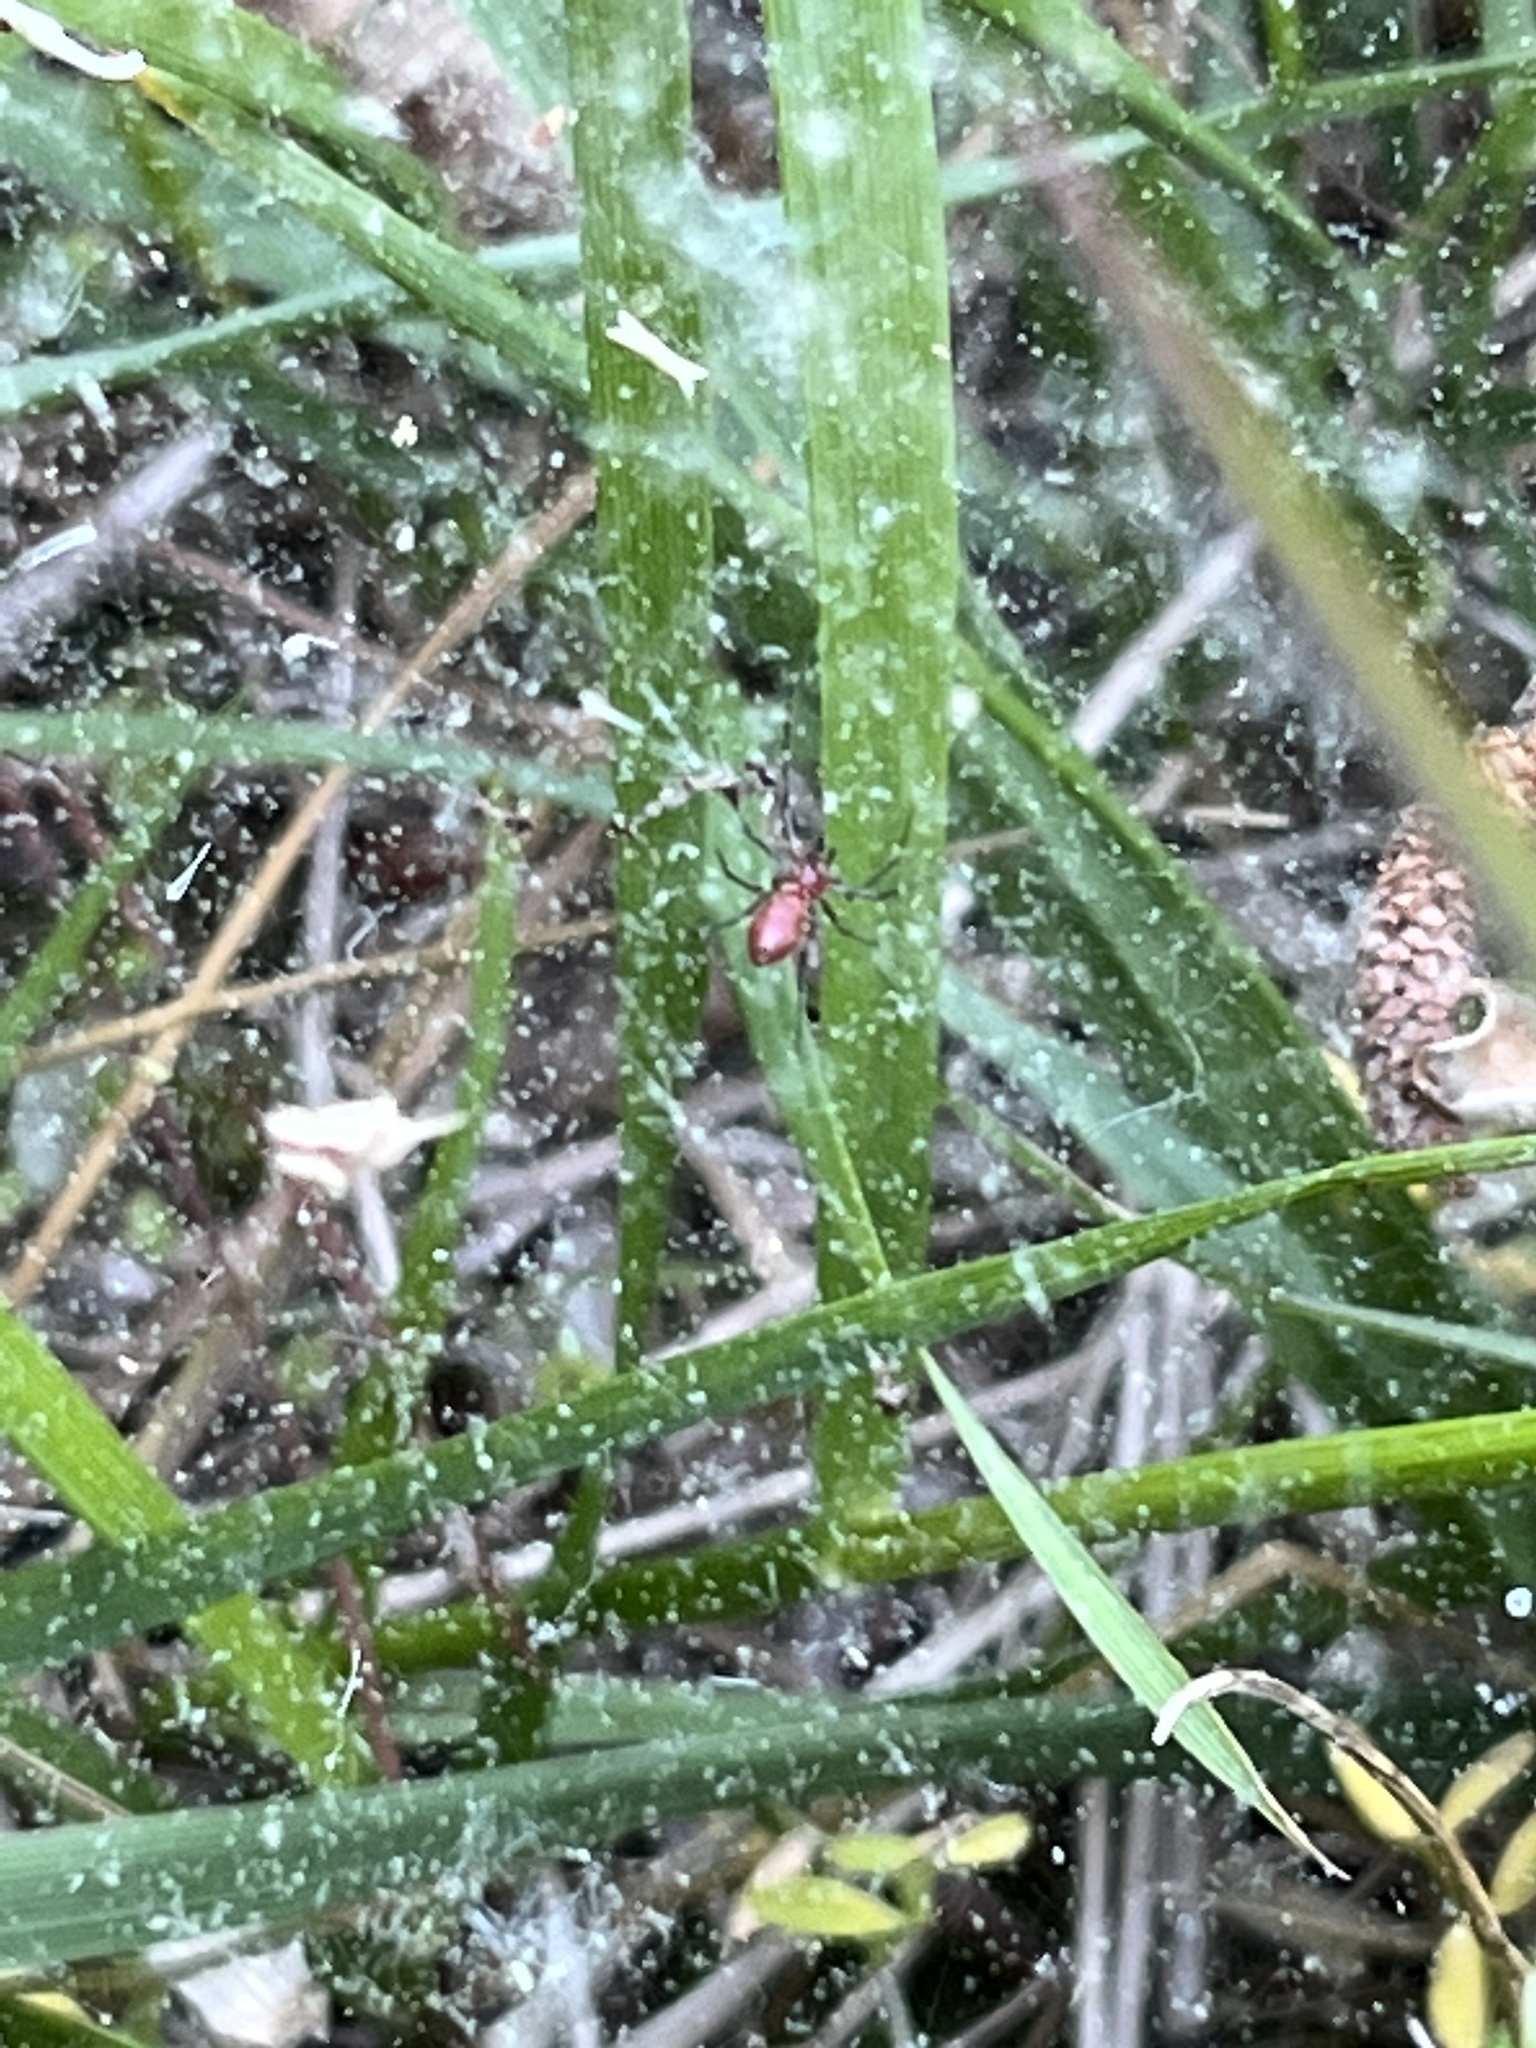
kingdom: Animalia
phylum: Arthropoda
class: Arachnida
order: Araneae
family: Linyphiidae
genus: Florinda
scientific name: Florinda coccinea
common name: Black-tailed red sheetweaver
